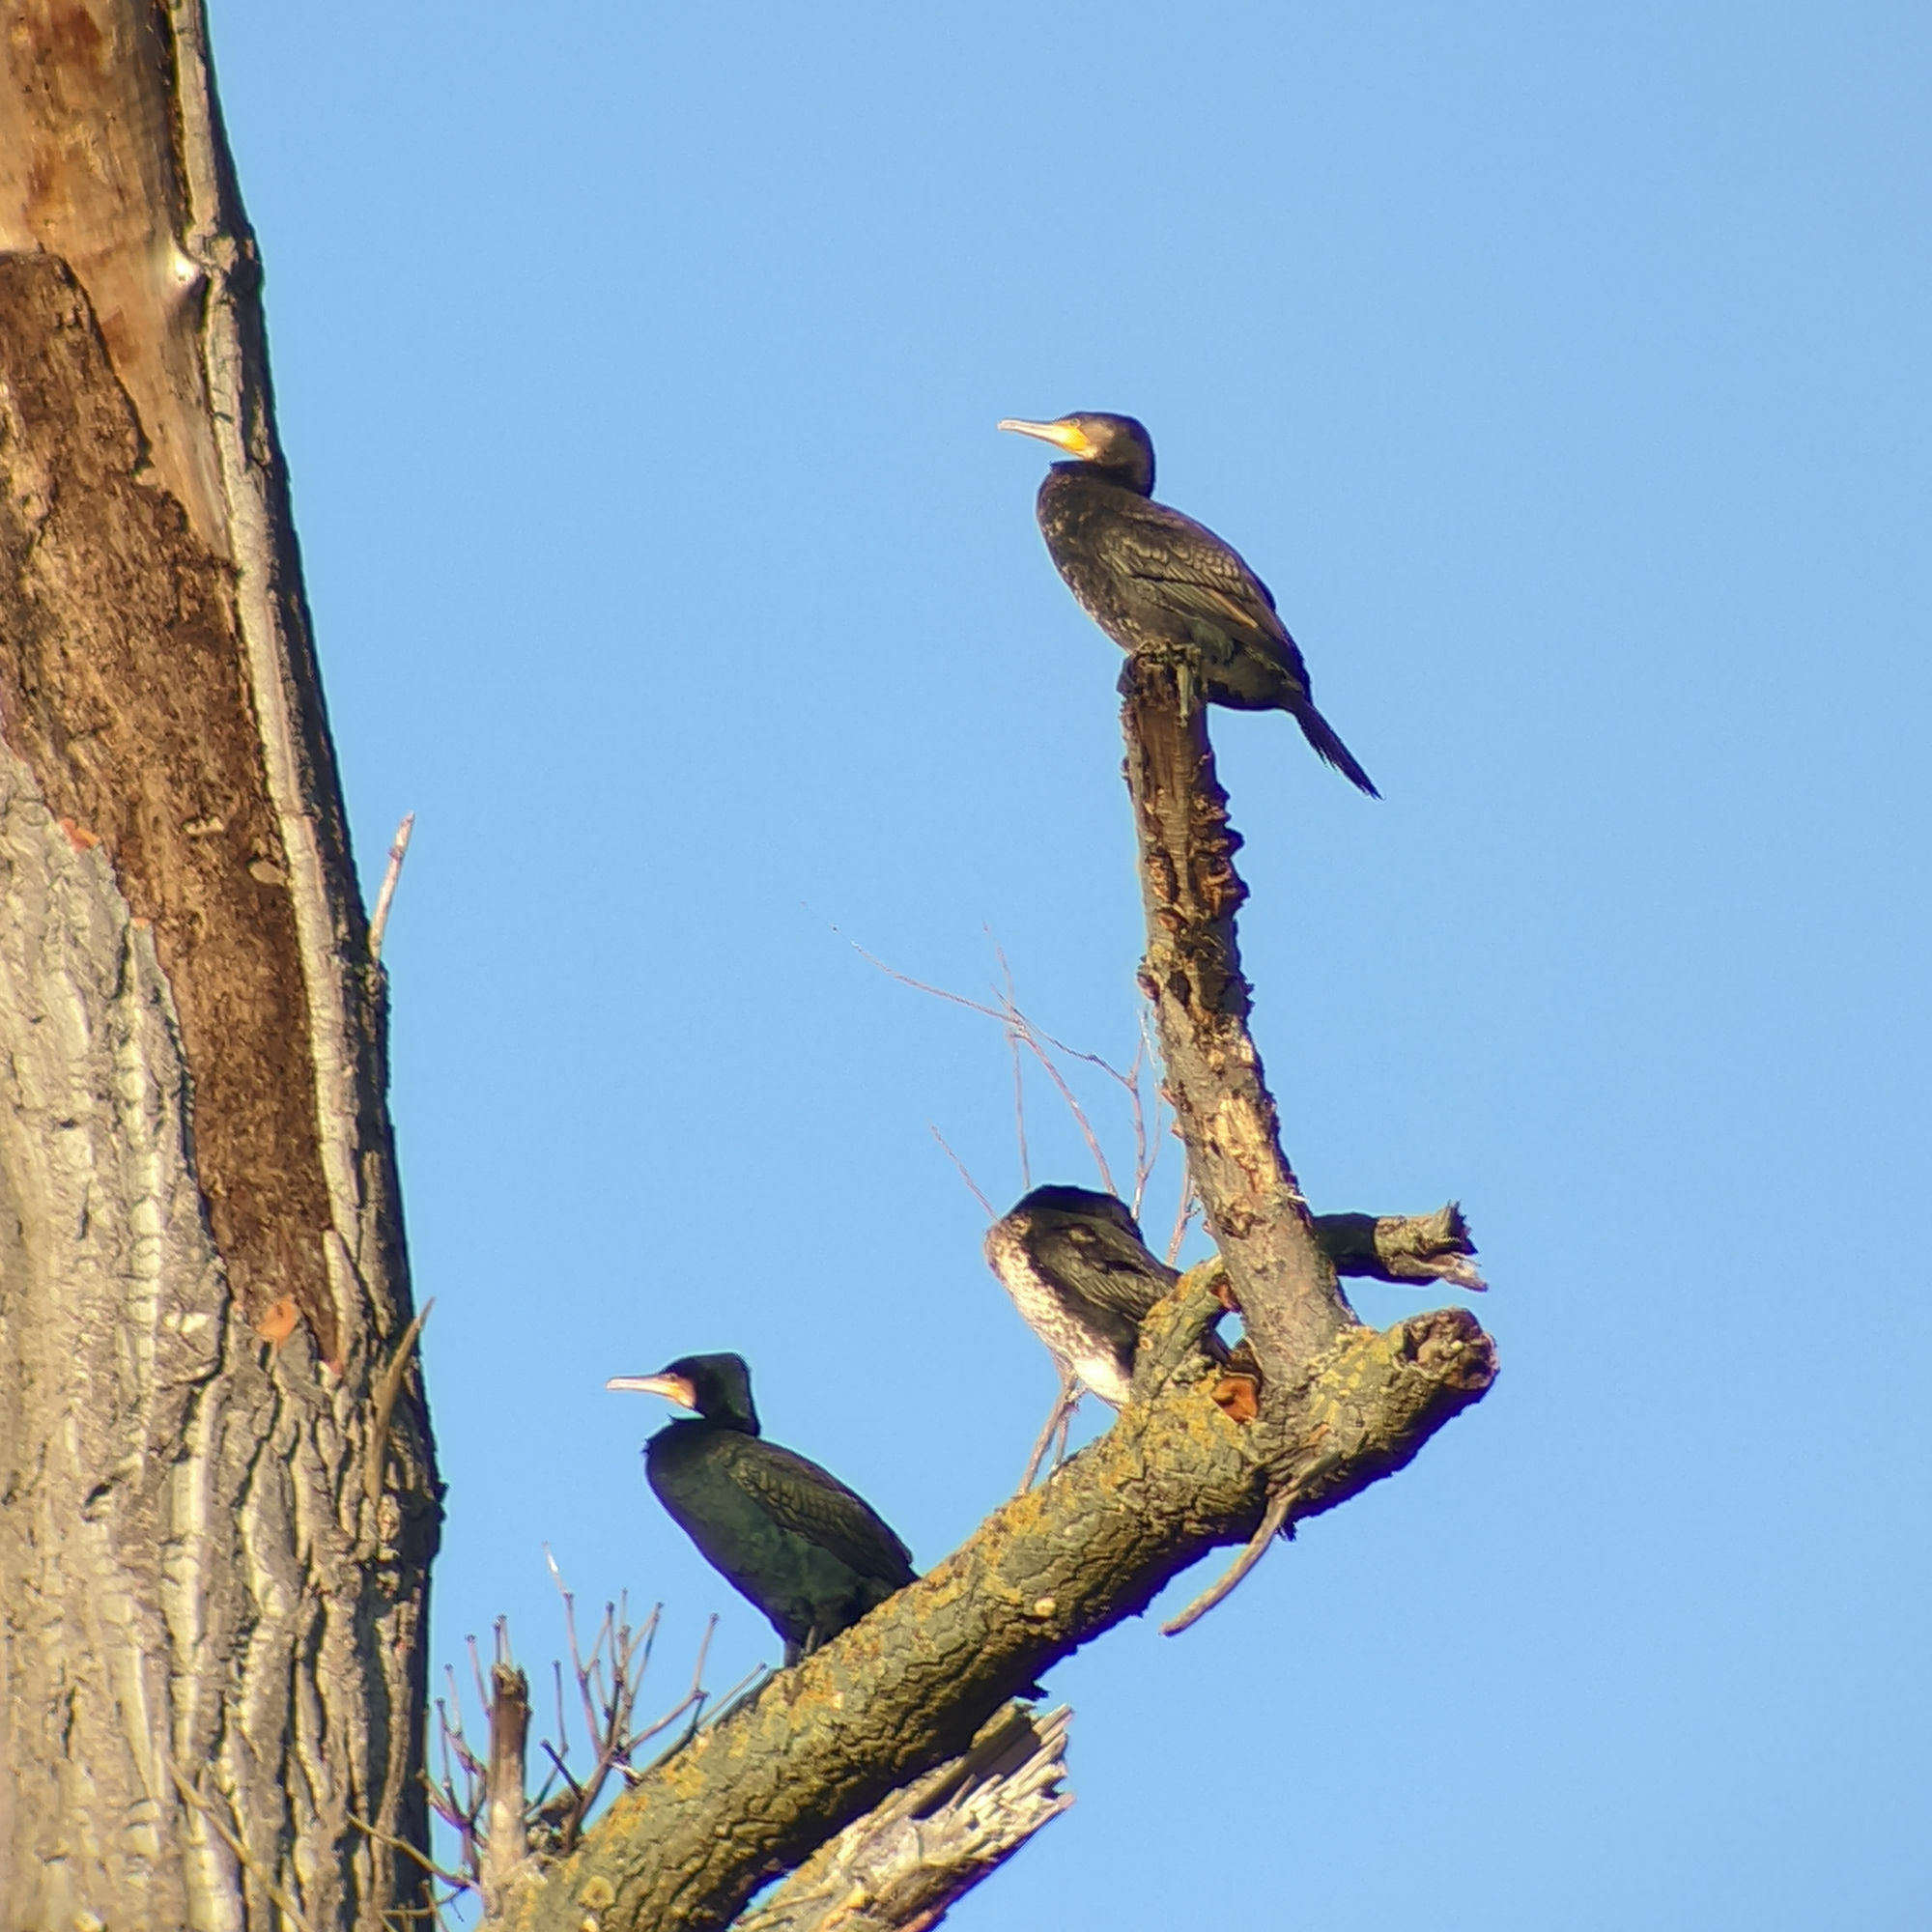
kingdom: Animalia
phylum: Chordata
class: Aves
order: Suliformes
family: Phalacrocoracidae
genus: Phalacrocorax
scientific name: Phalacrocorax carbo
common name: Great cormorant
